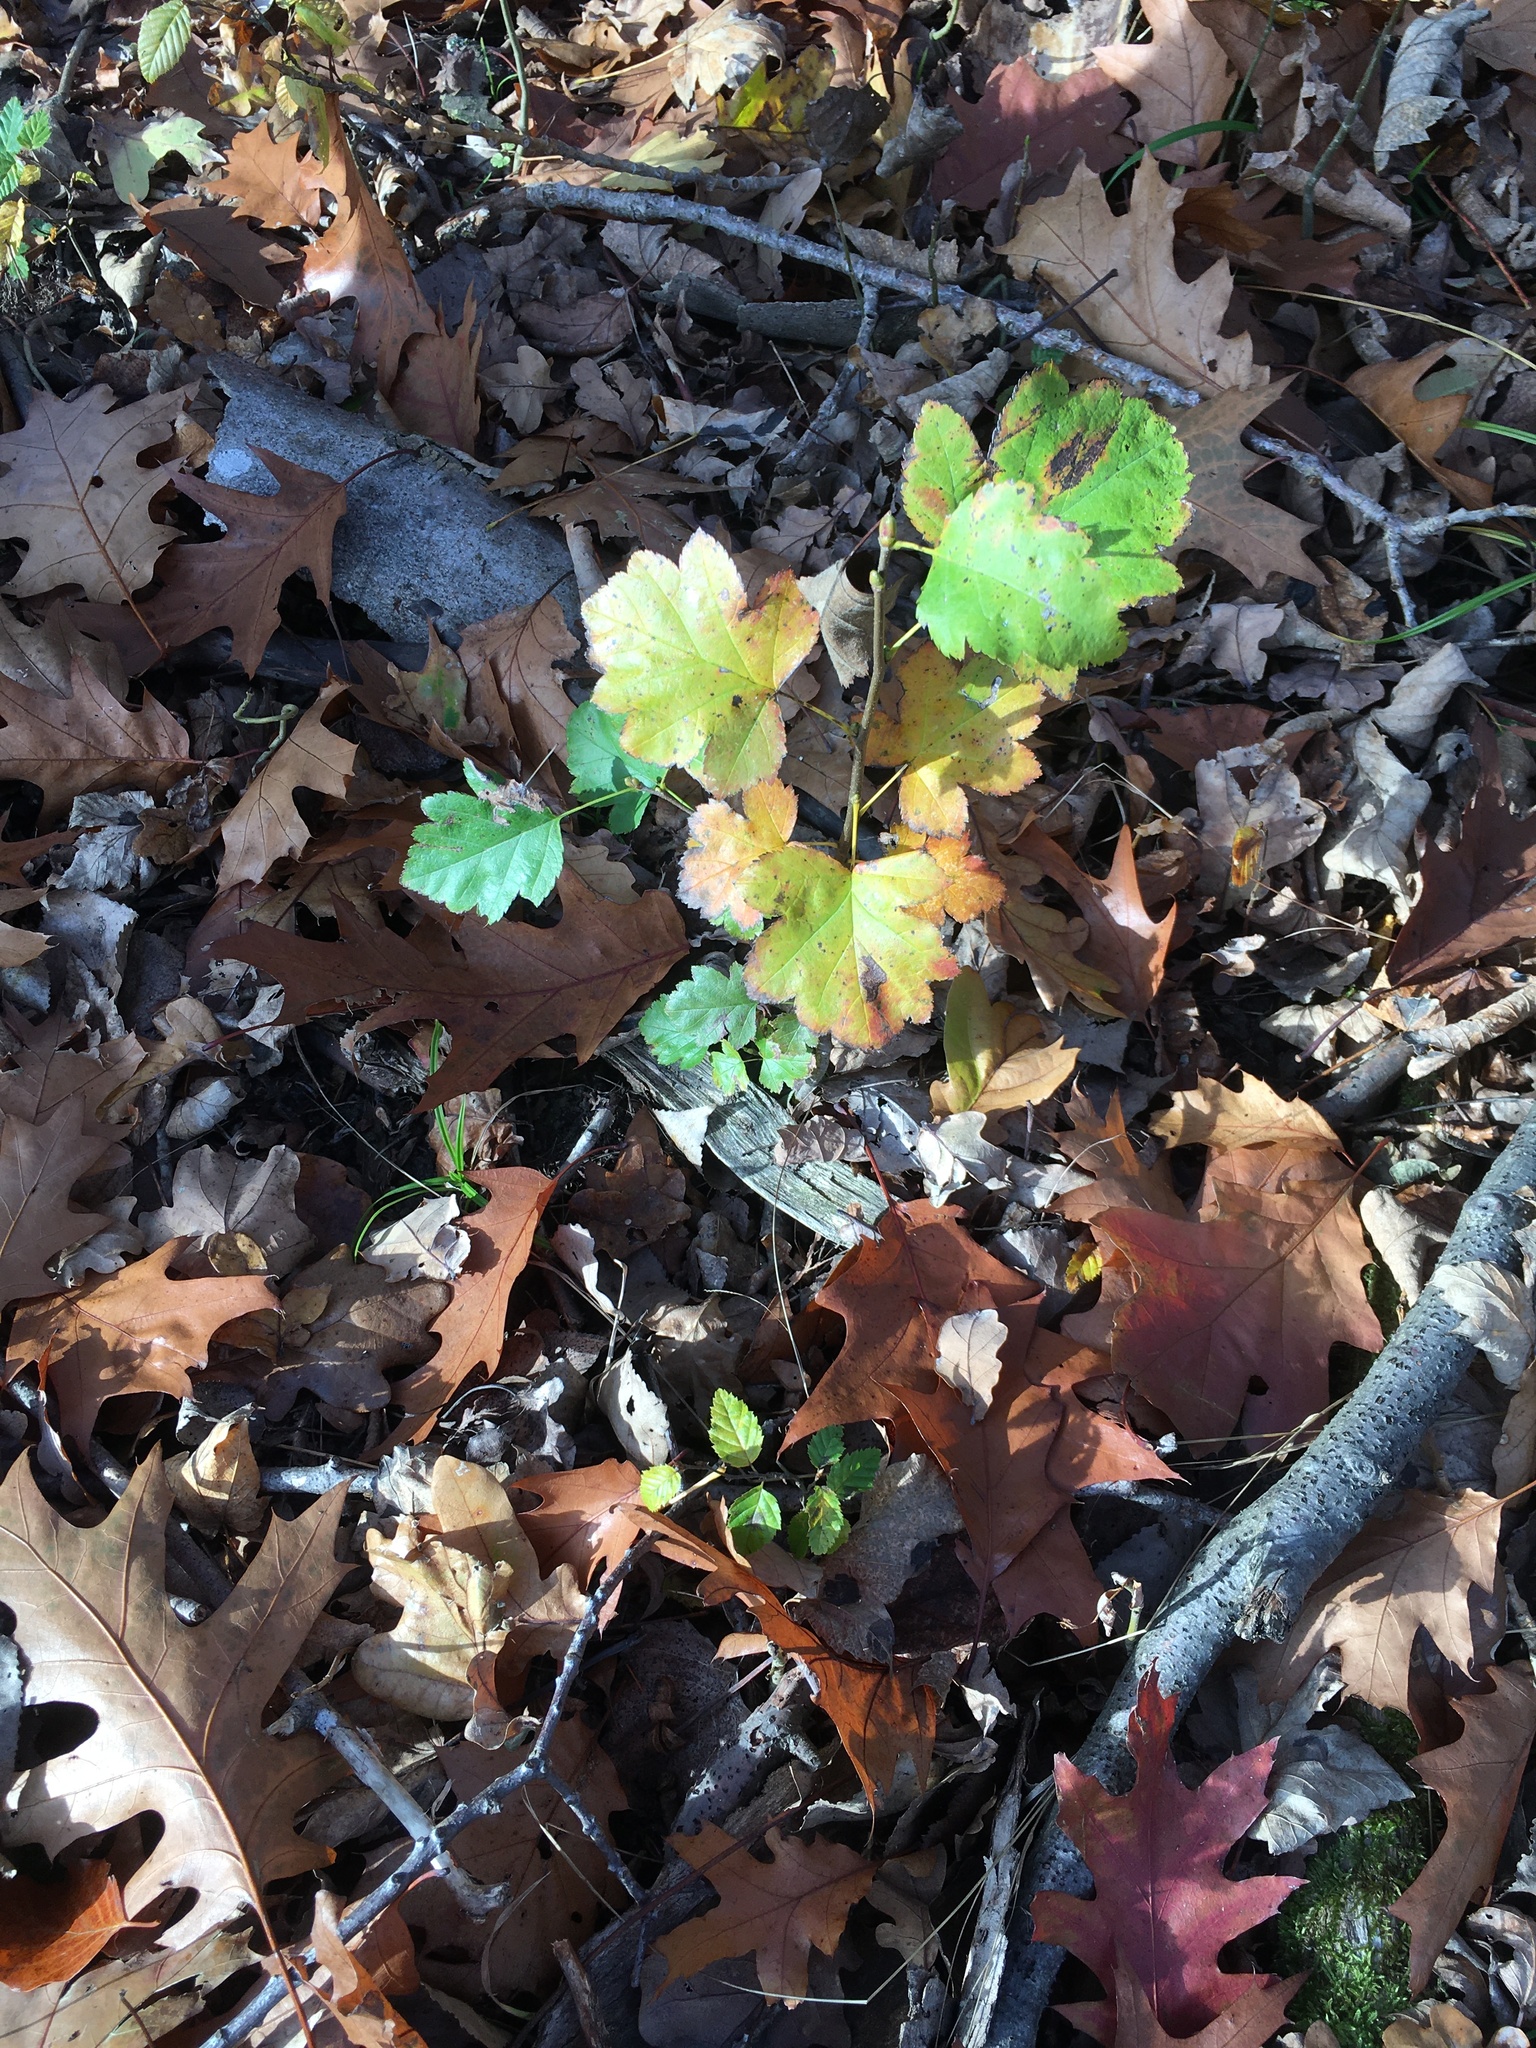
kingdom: Plantae
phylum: Tracheophyta
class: Magnoliopsida
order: Rosales
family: Rosaceae
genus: Torminalis
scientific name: Torminalis glaberrima
